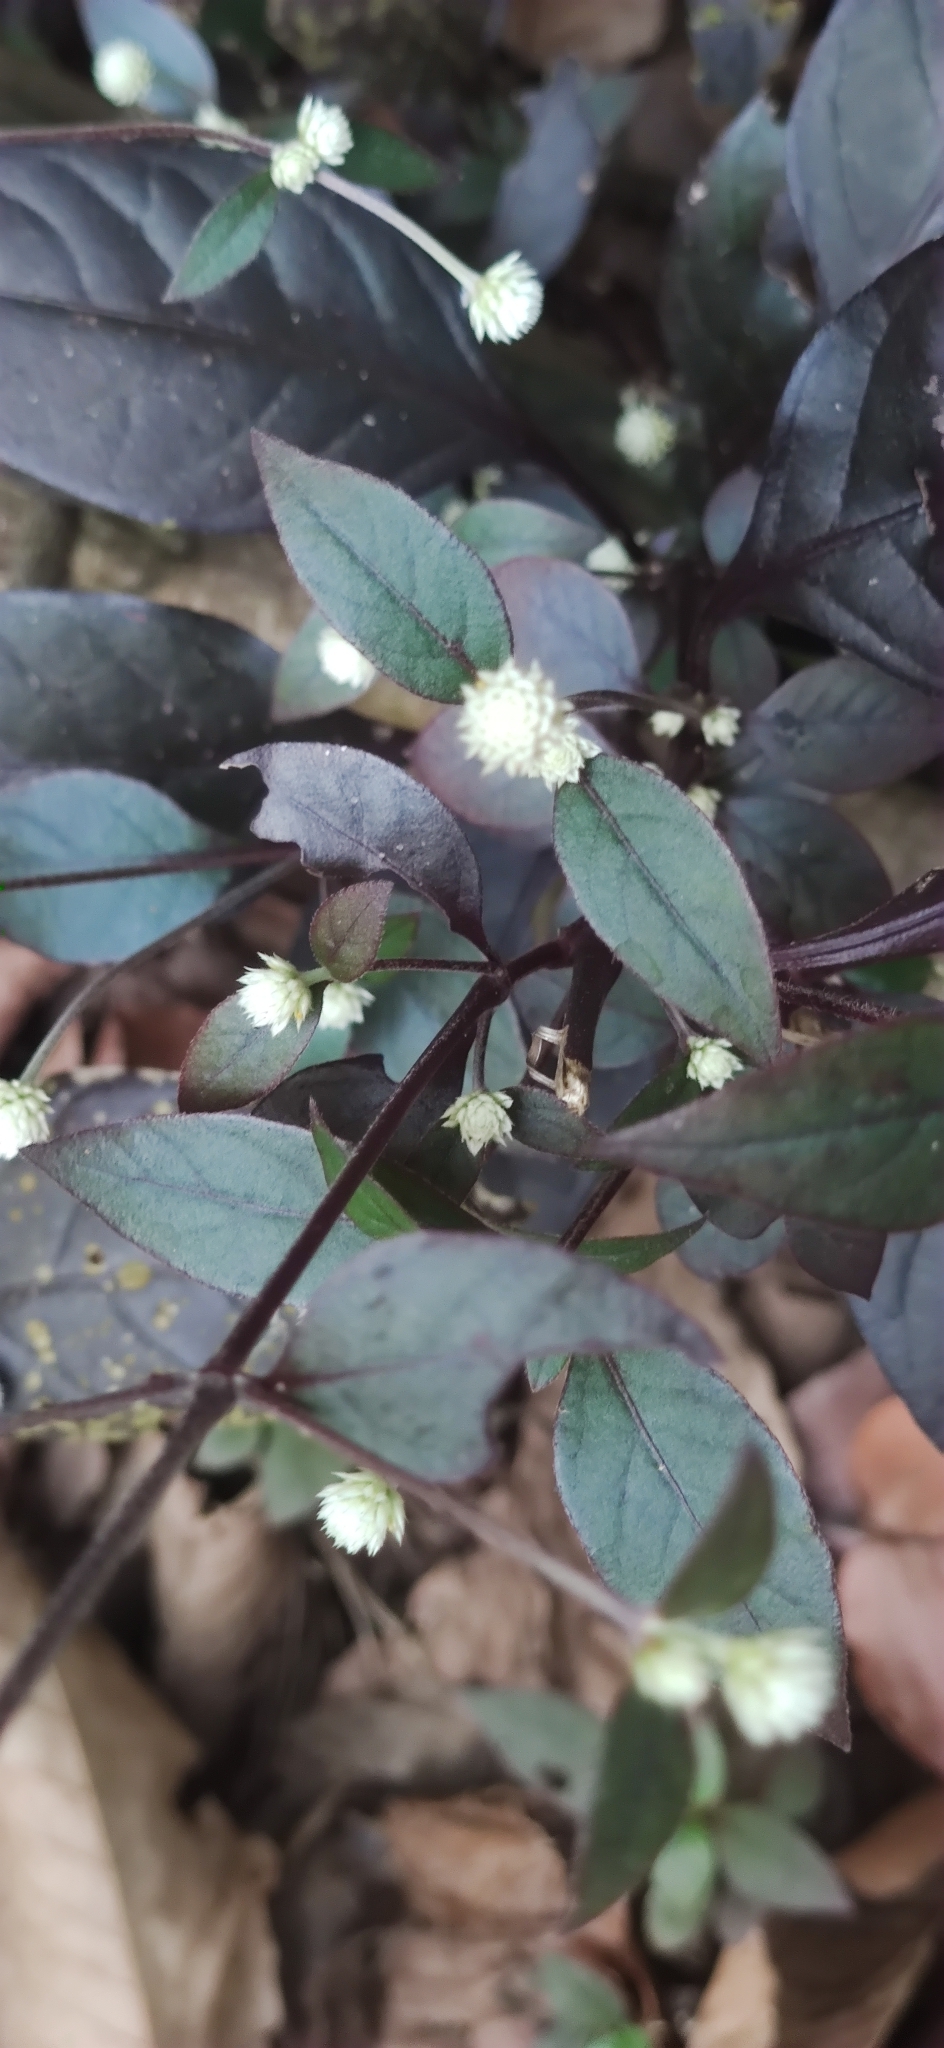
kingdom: Plantae
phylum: Tracheophyta
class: Magnoliopsida
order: Caryophyllales
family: Amaranthaceae
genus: Alternanthera
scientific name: Alternanthera brasiliana
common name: Brazilian joyweed
